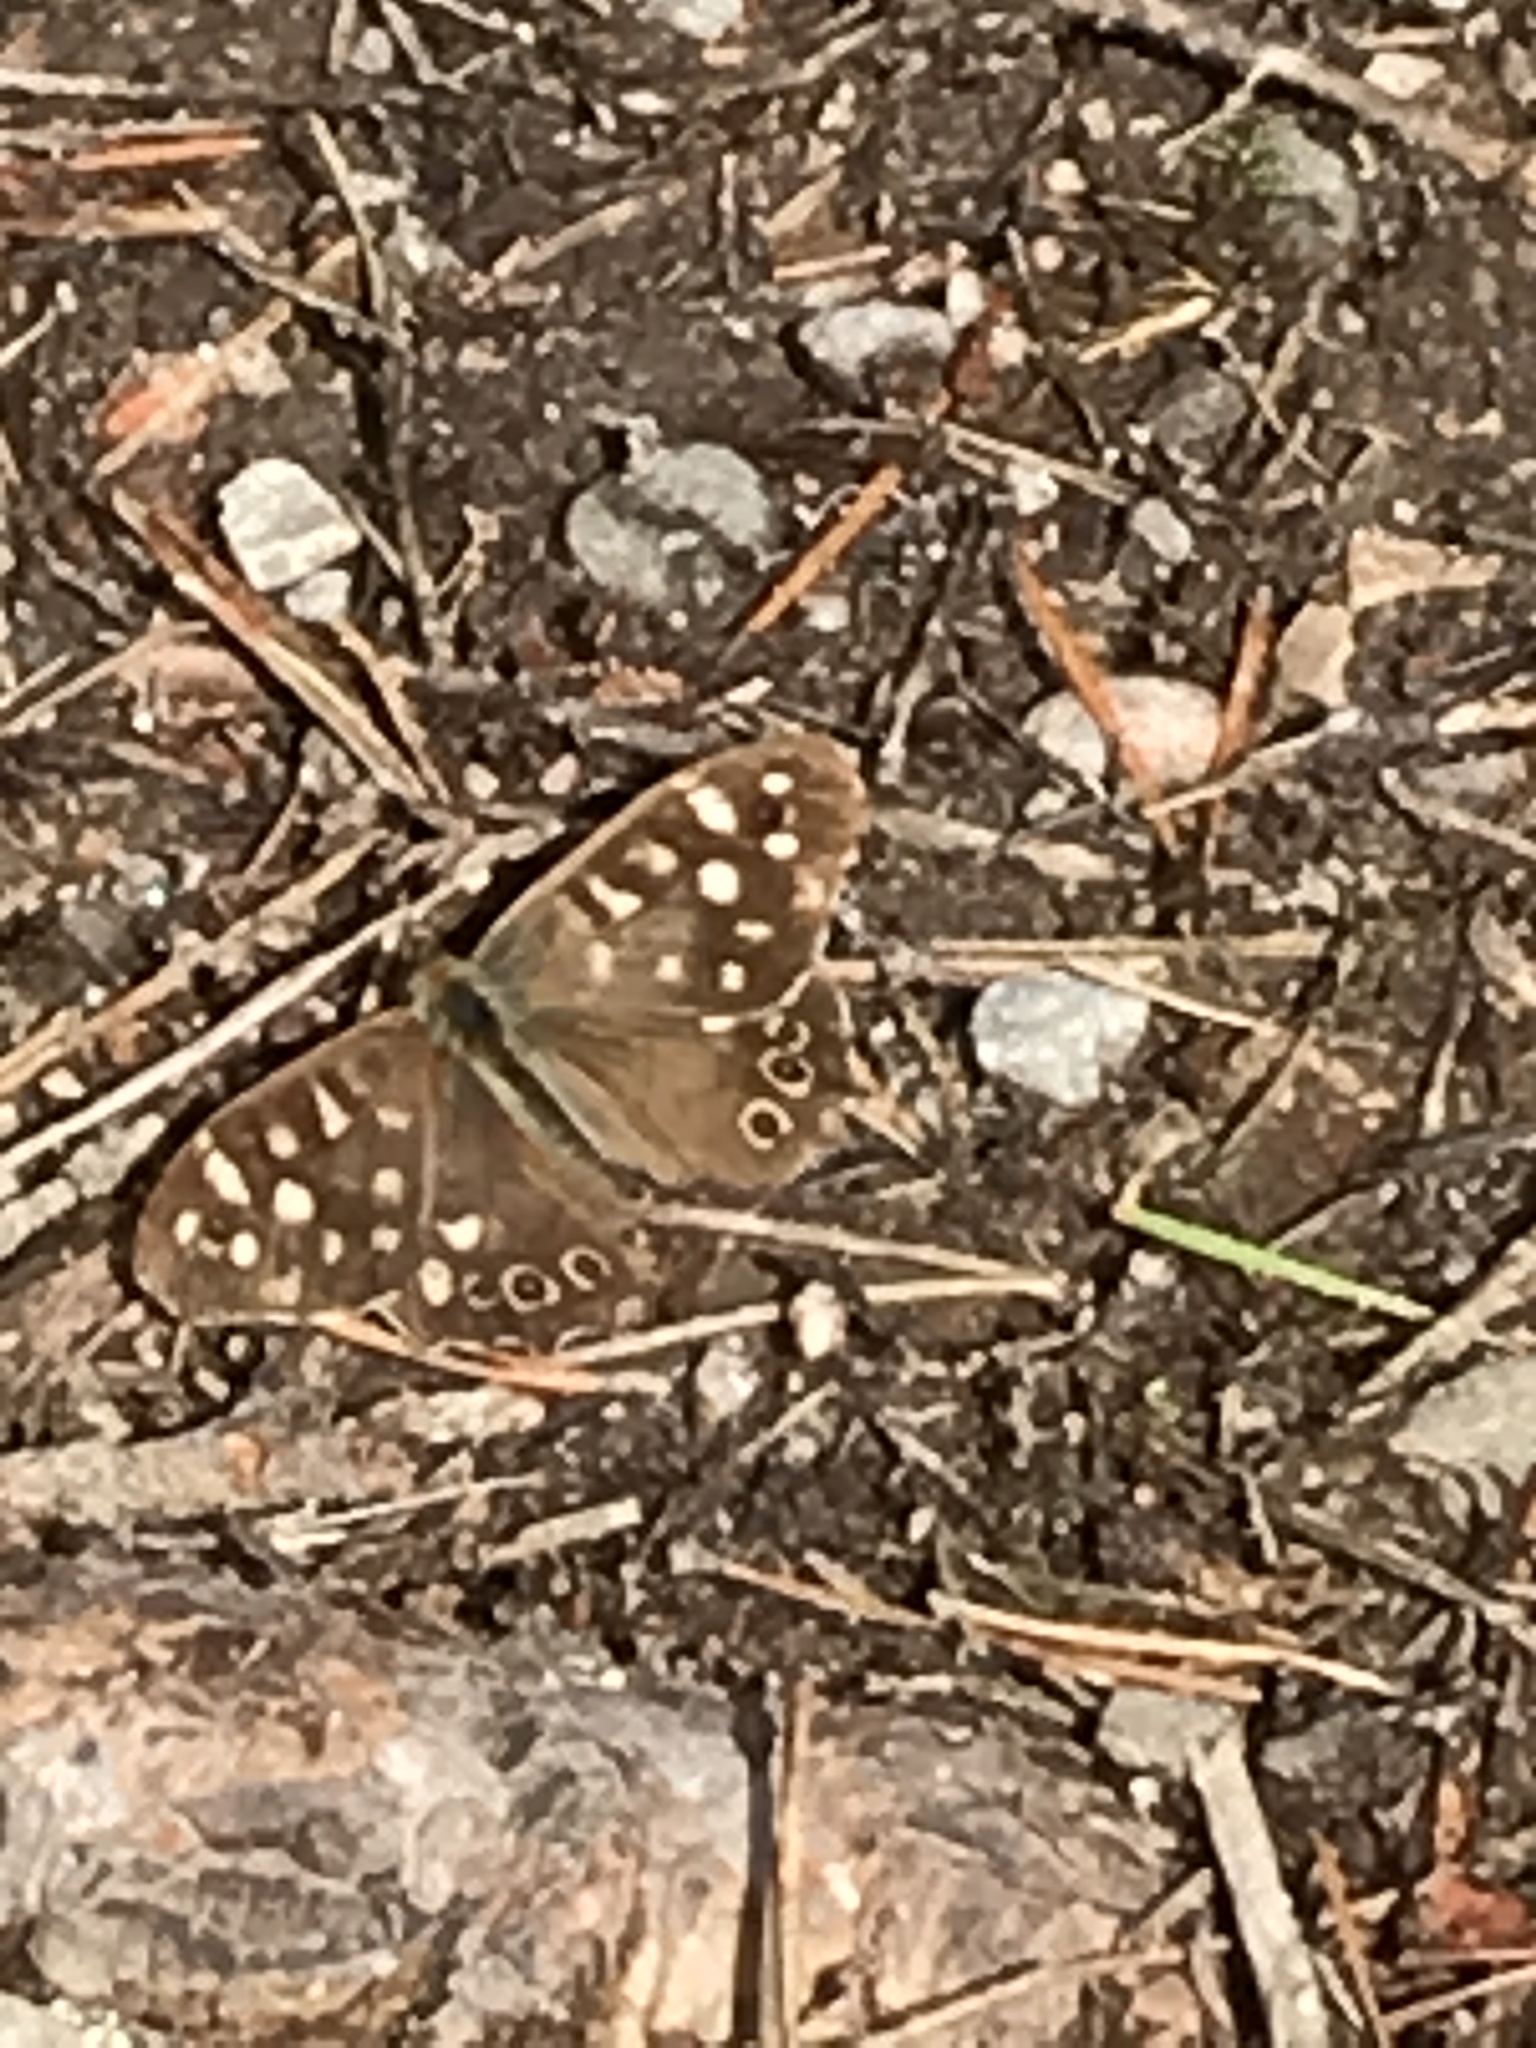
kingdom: Animalia
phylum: Arthropoda
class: Insecta
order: Lepidoptera
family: Nymphalidae
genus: Pararge
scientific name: Pararge aegeria
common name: Speckled wood
